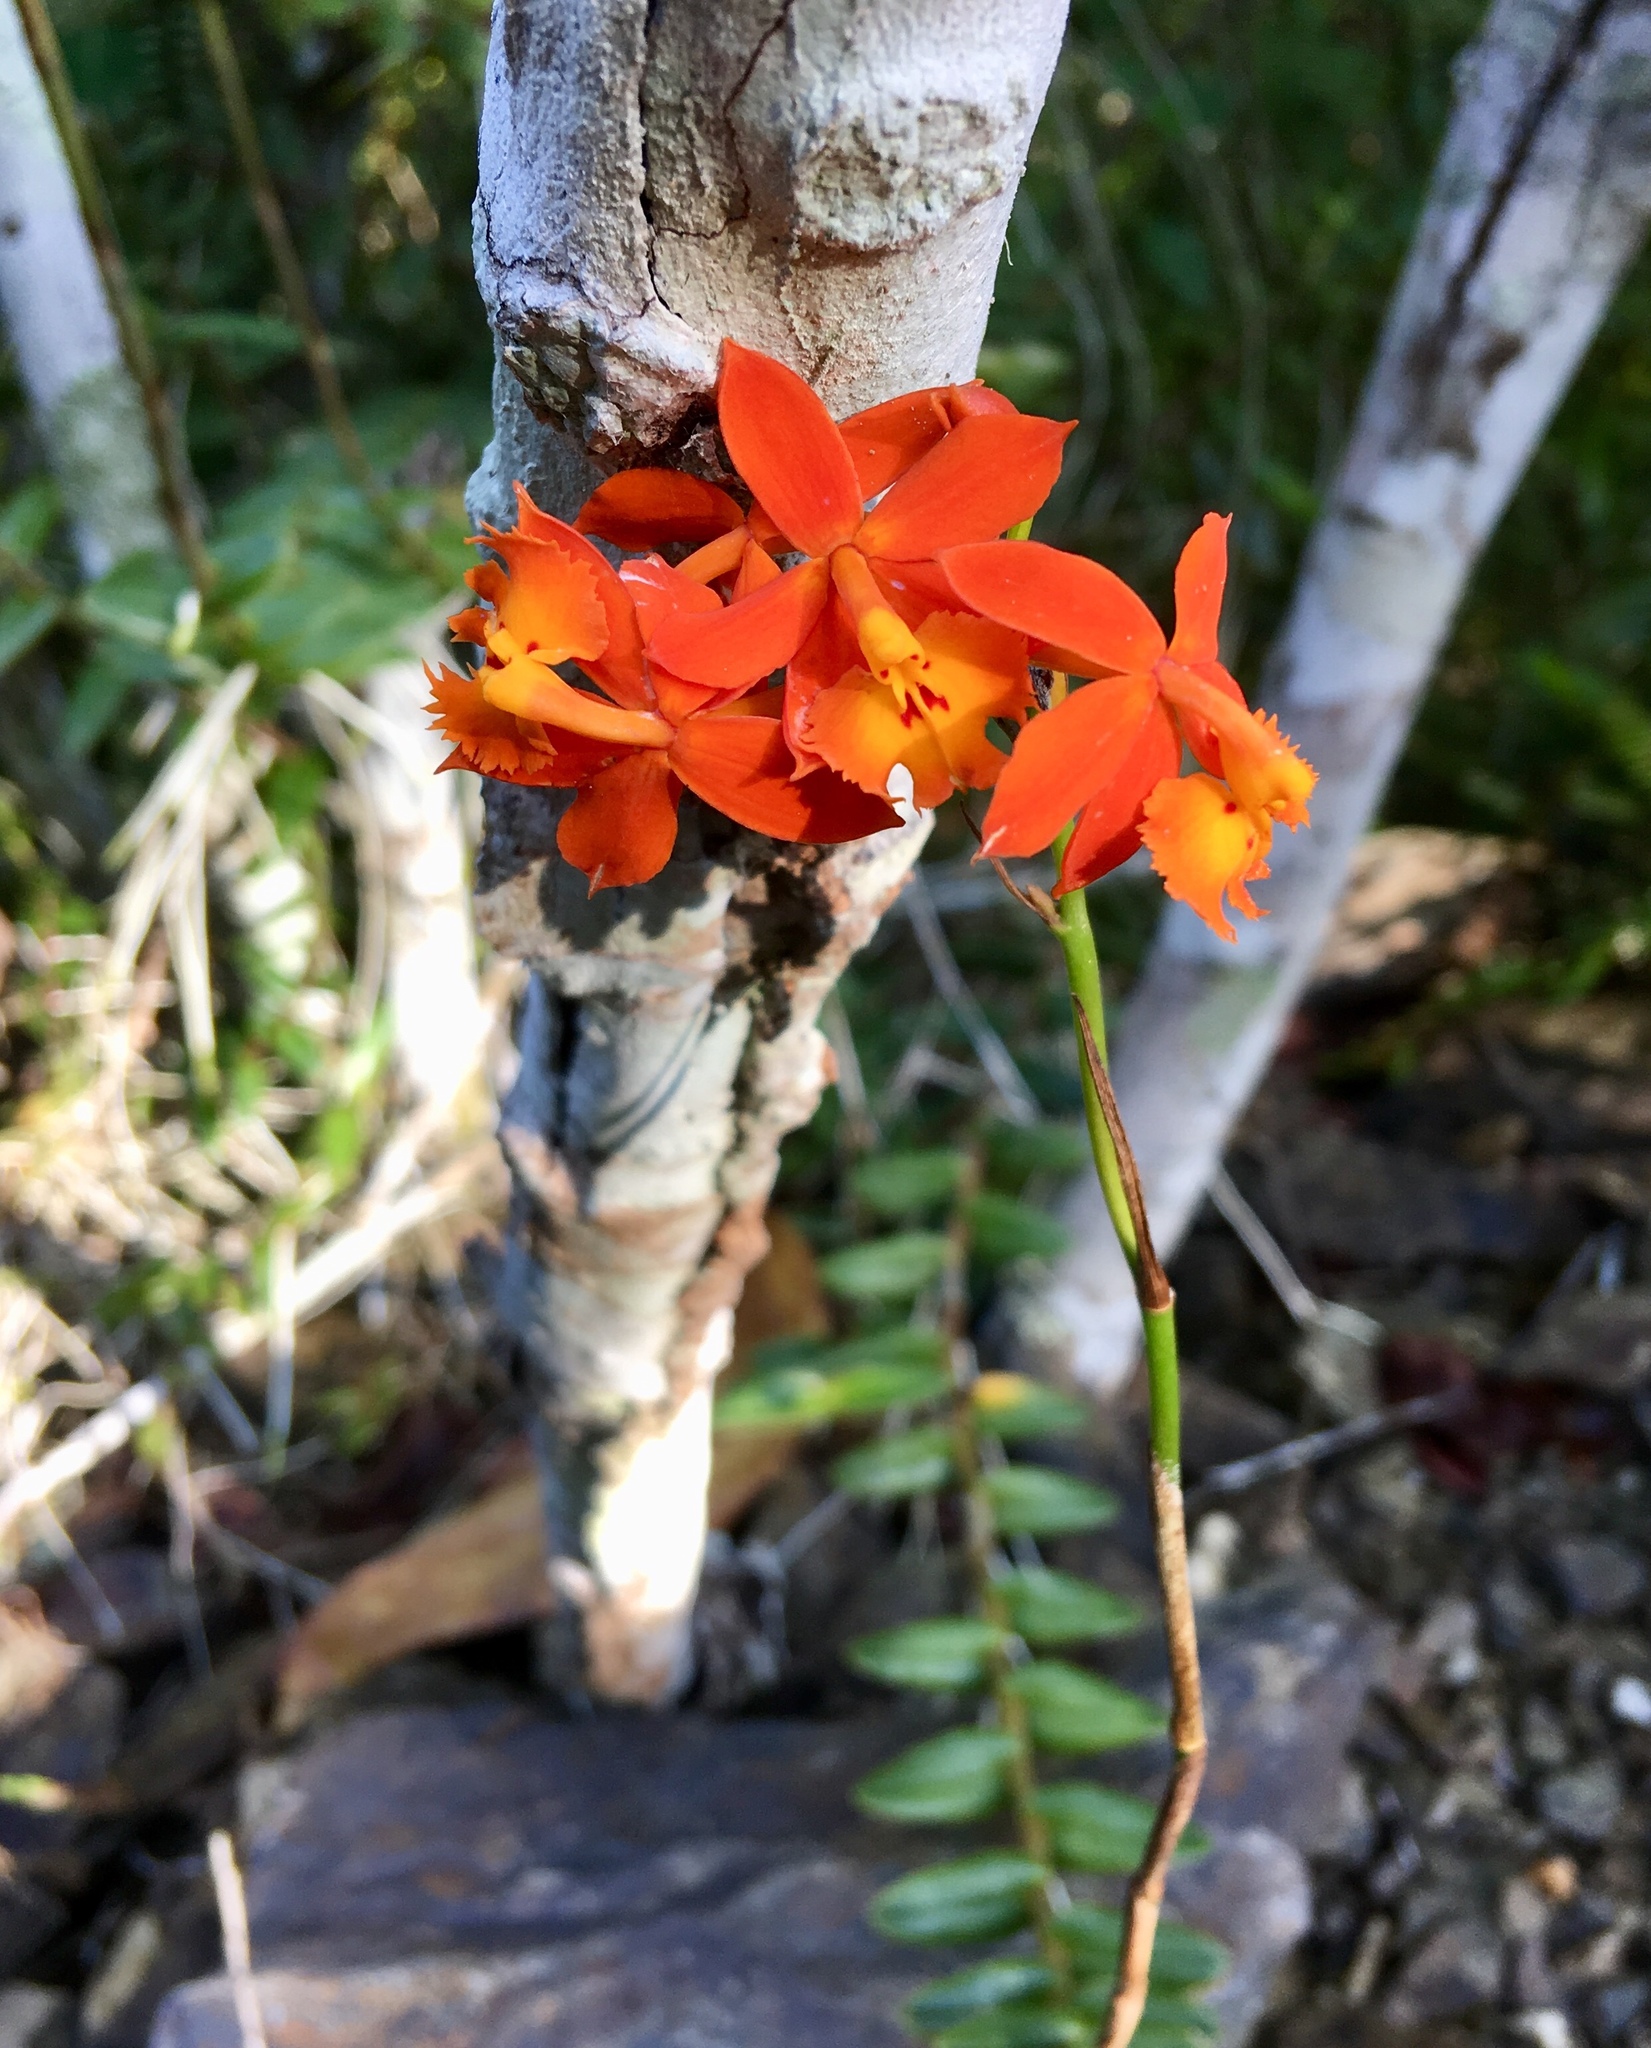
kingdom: Plantae
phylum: Tracheophyta
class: Liliopsida
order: Asparagales
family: Orchidaceae
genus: Epidendrum
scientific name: Epidendrum radicans
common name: Fire star orchid
